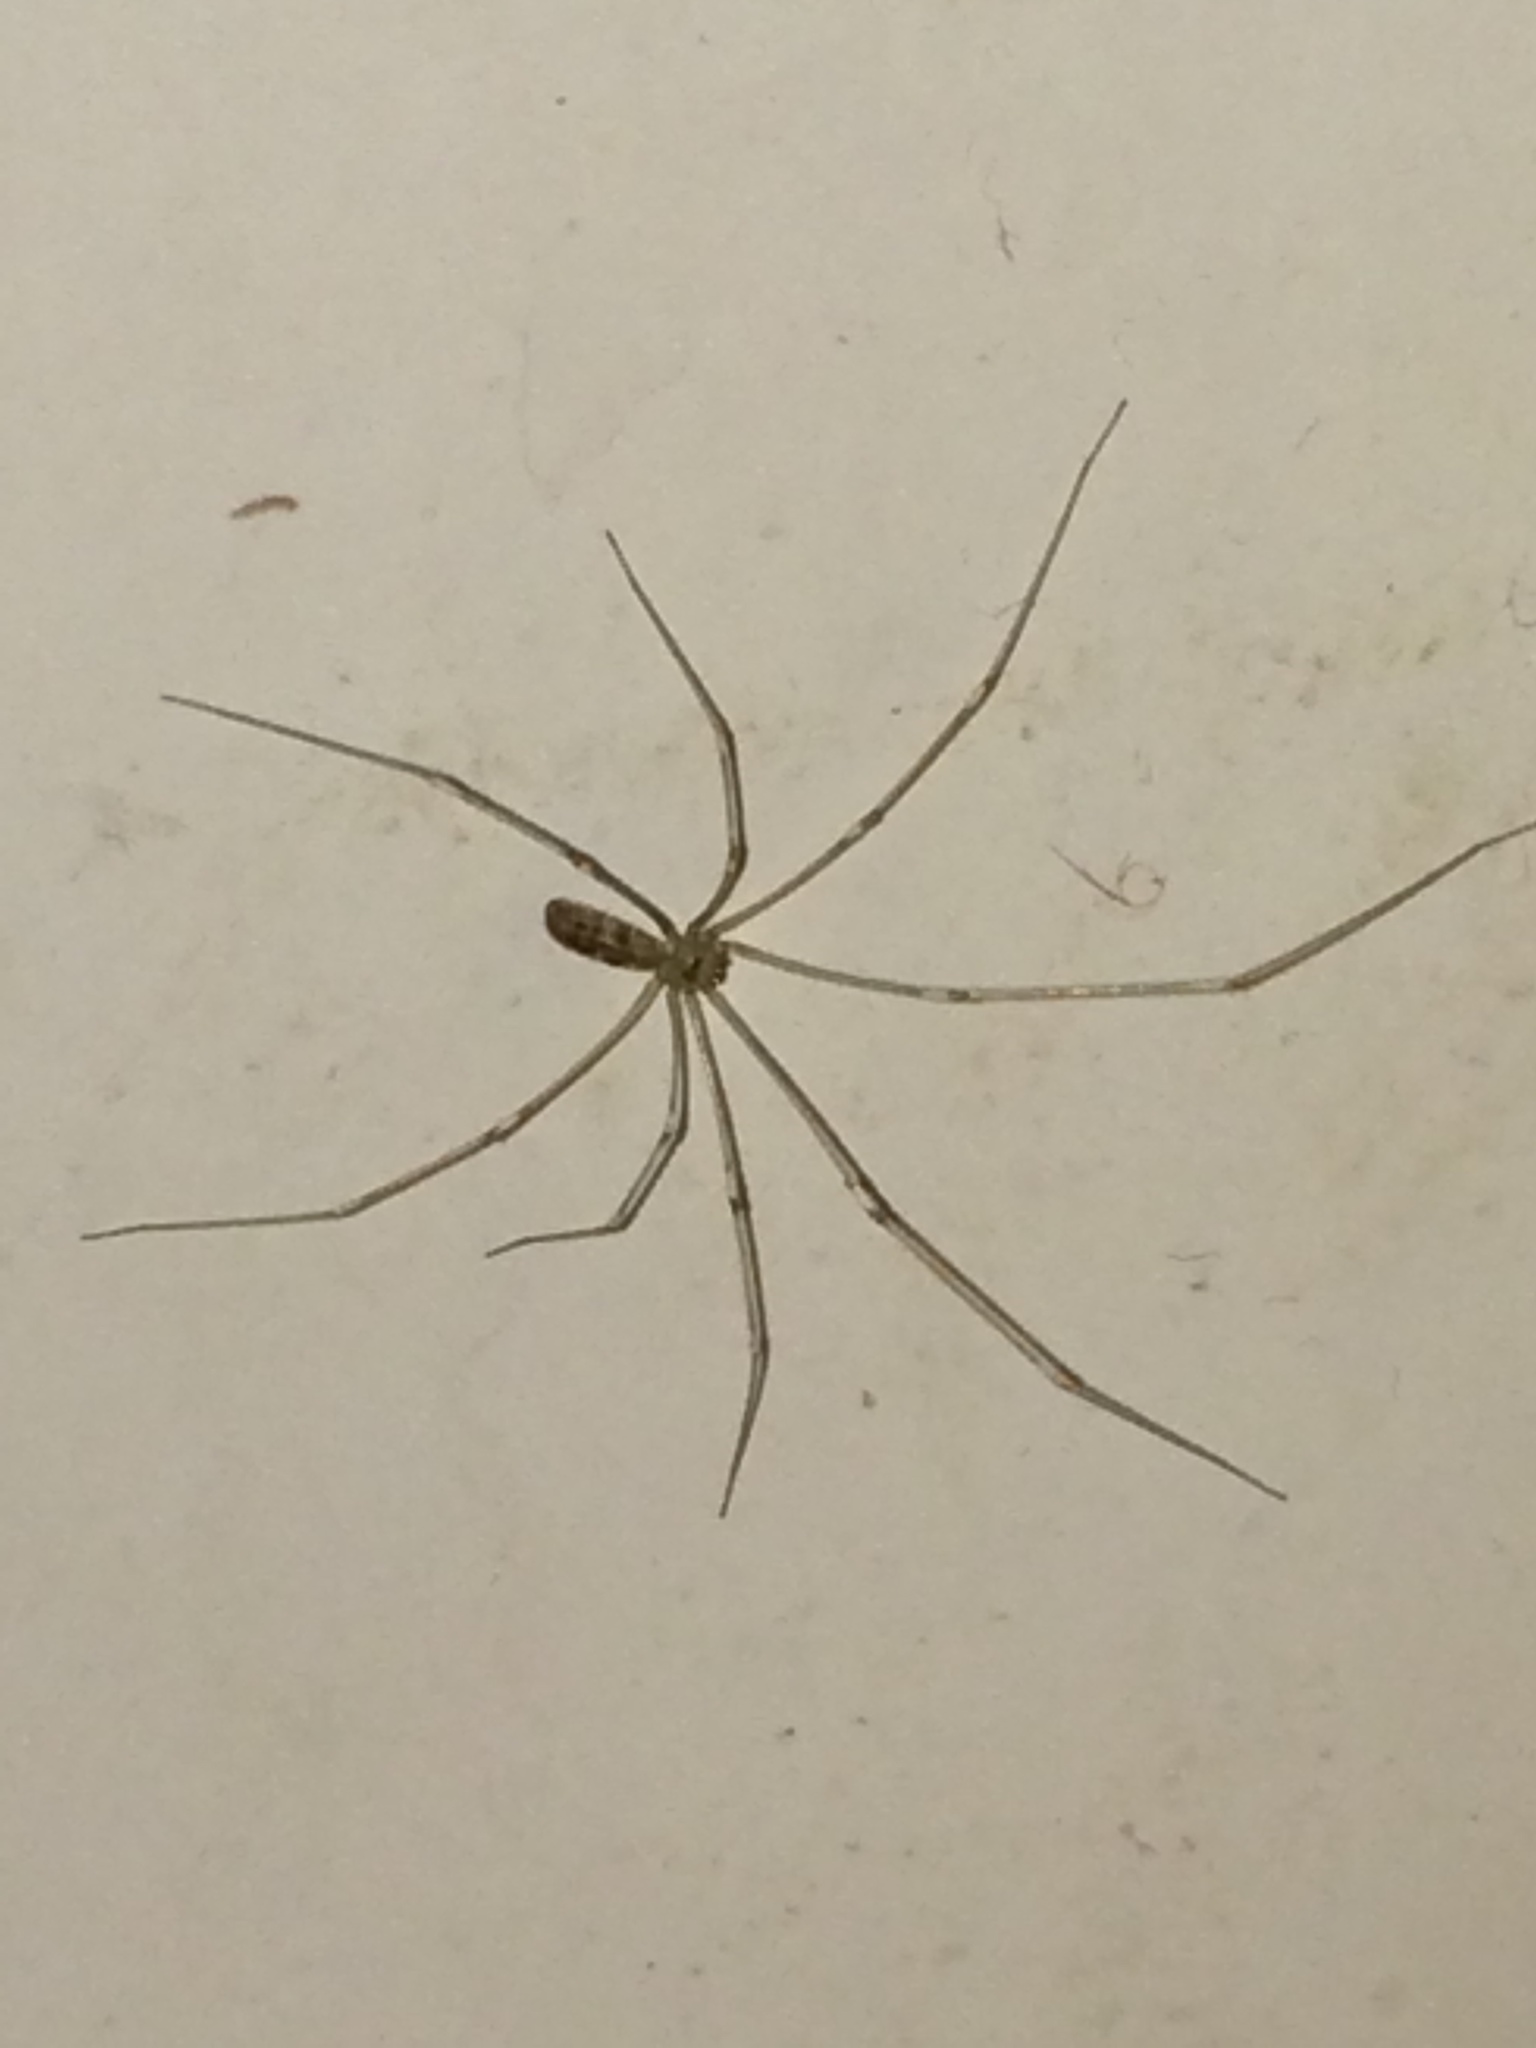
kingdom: Animalia
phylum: Arthropoda
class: Arachnida
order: Araneae
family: Pholcidae
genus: Pholcus
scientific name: Pholcus phalangioides
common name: Longbodied cellar spider
